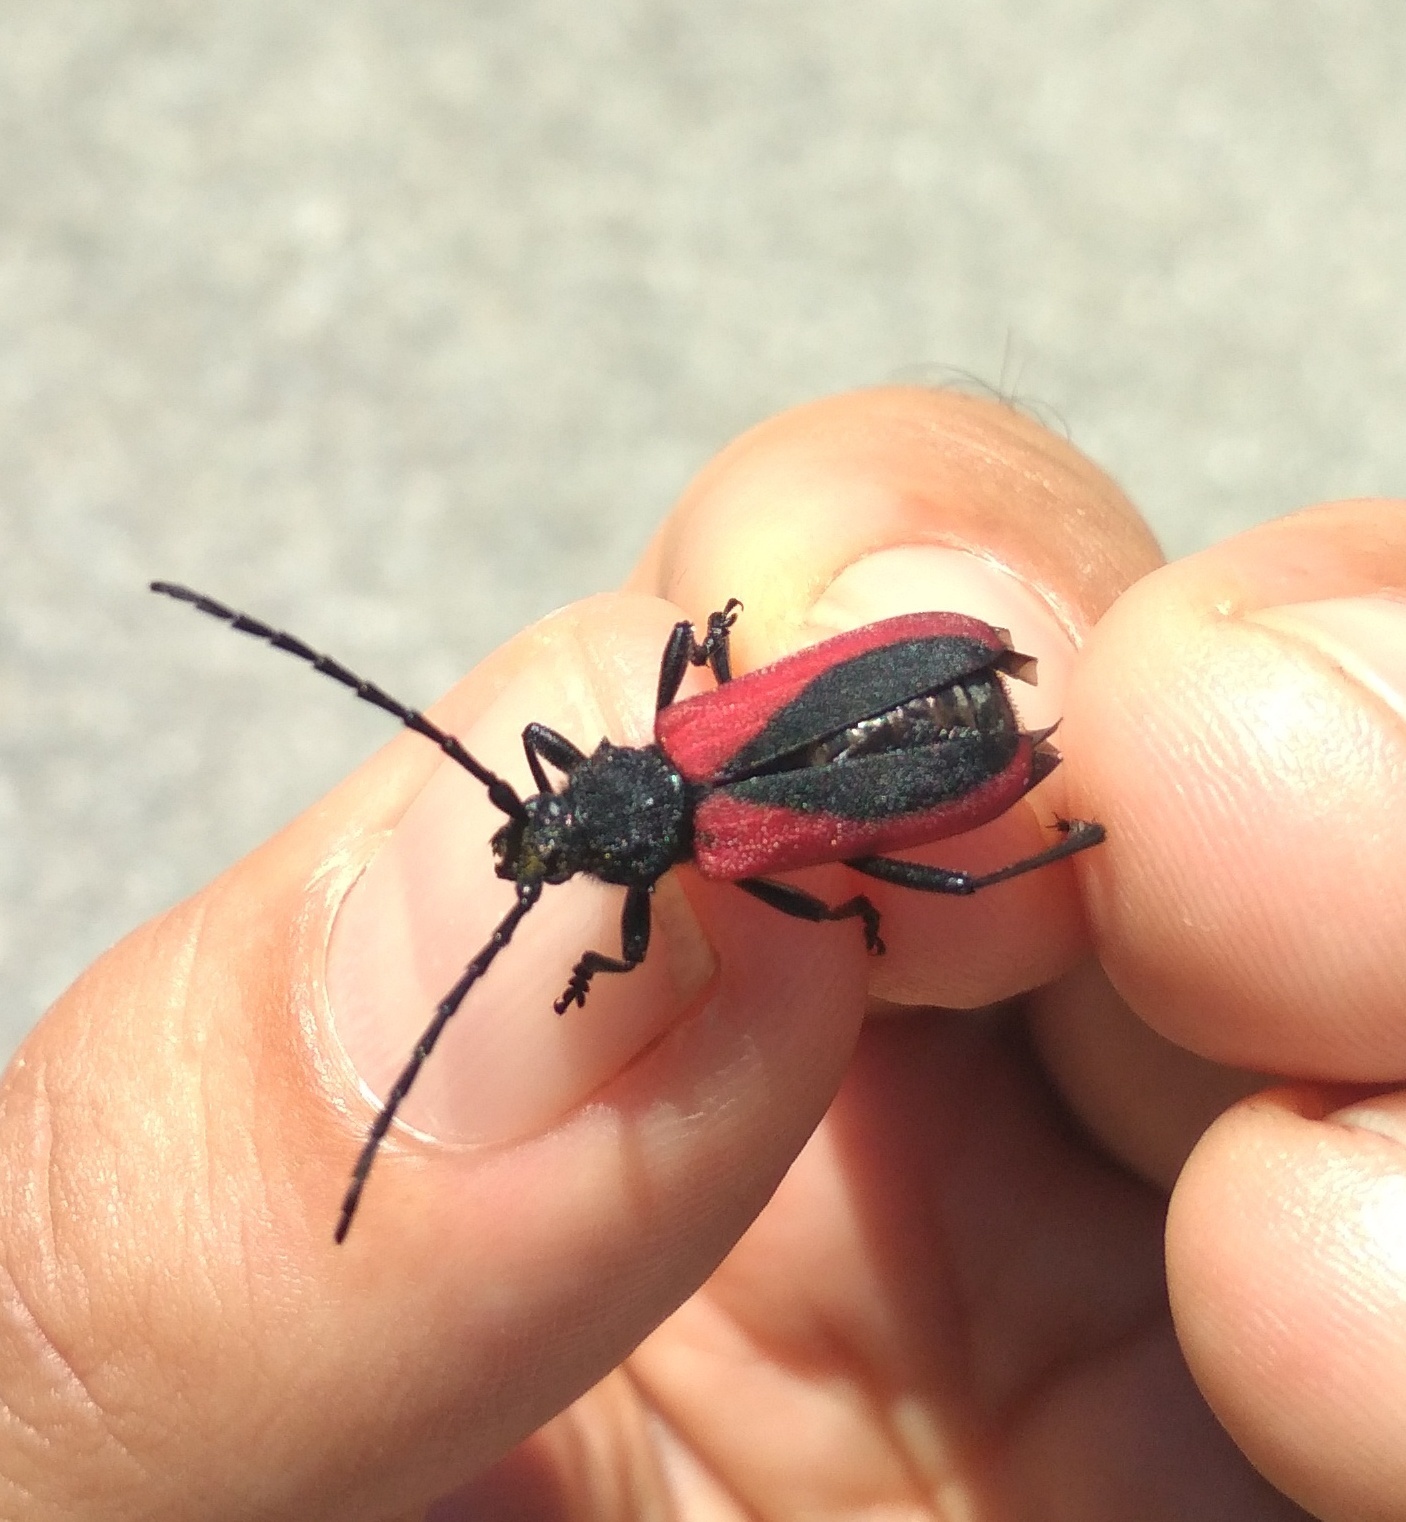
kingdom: Animalia
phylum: Arthropoda
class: Insecta
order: Coleoptera
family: Cerambycidae
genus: Purpuricenus
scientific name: Purpuricenus kaehleri
